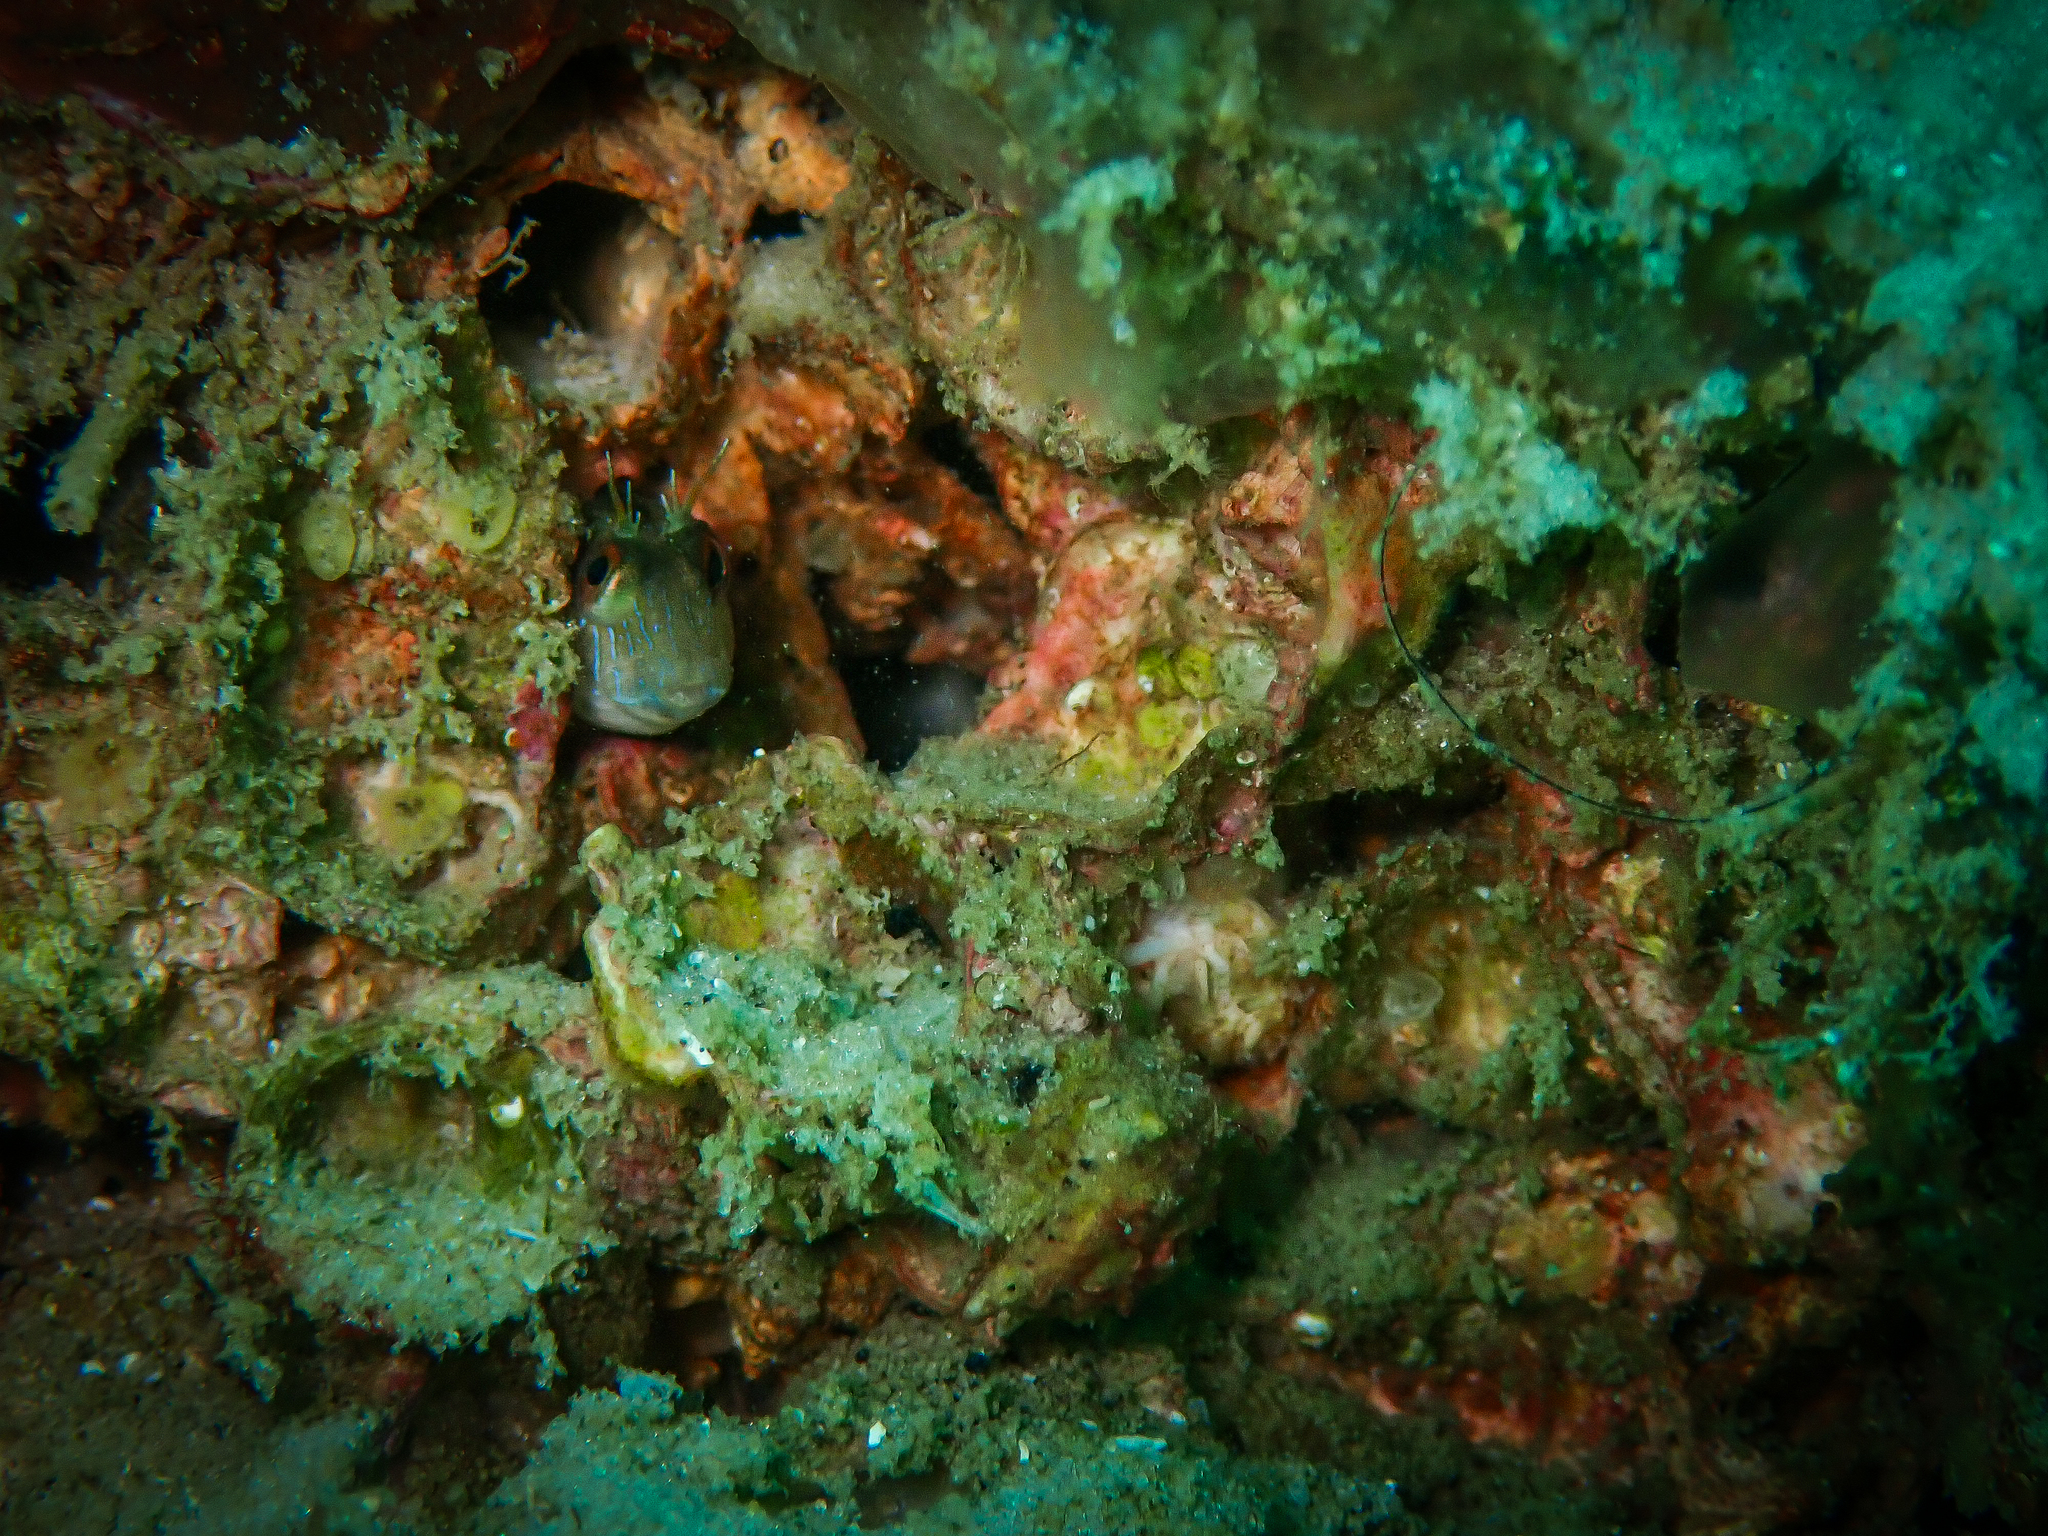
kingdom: Animalia
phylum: Chordata
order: Perciformes
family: Blenniidae
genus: Parablennius
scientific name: Parablennius marmoreus
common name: Seaweed blenny
